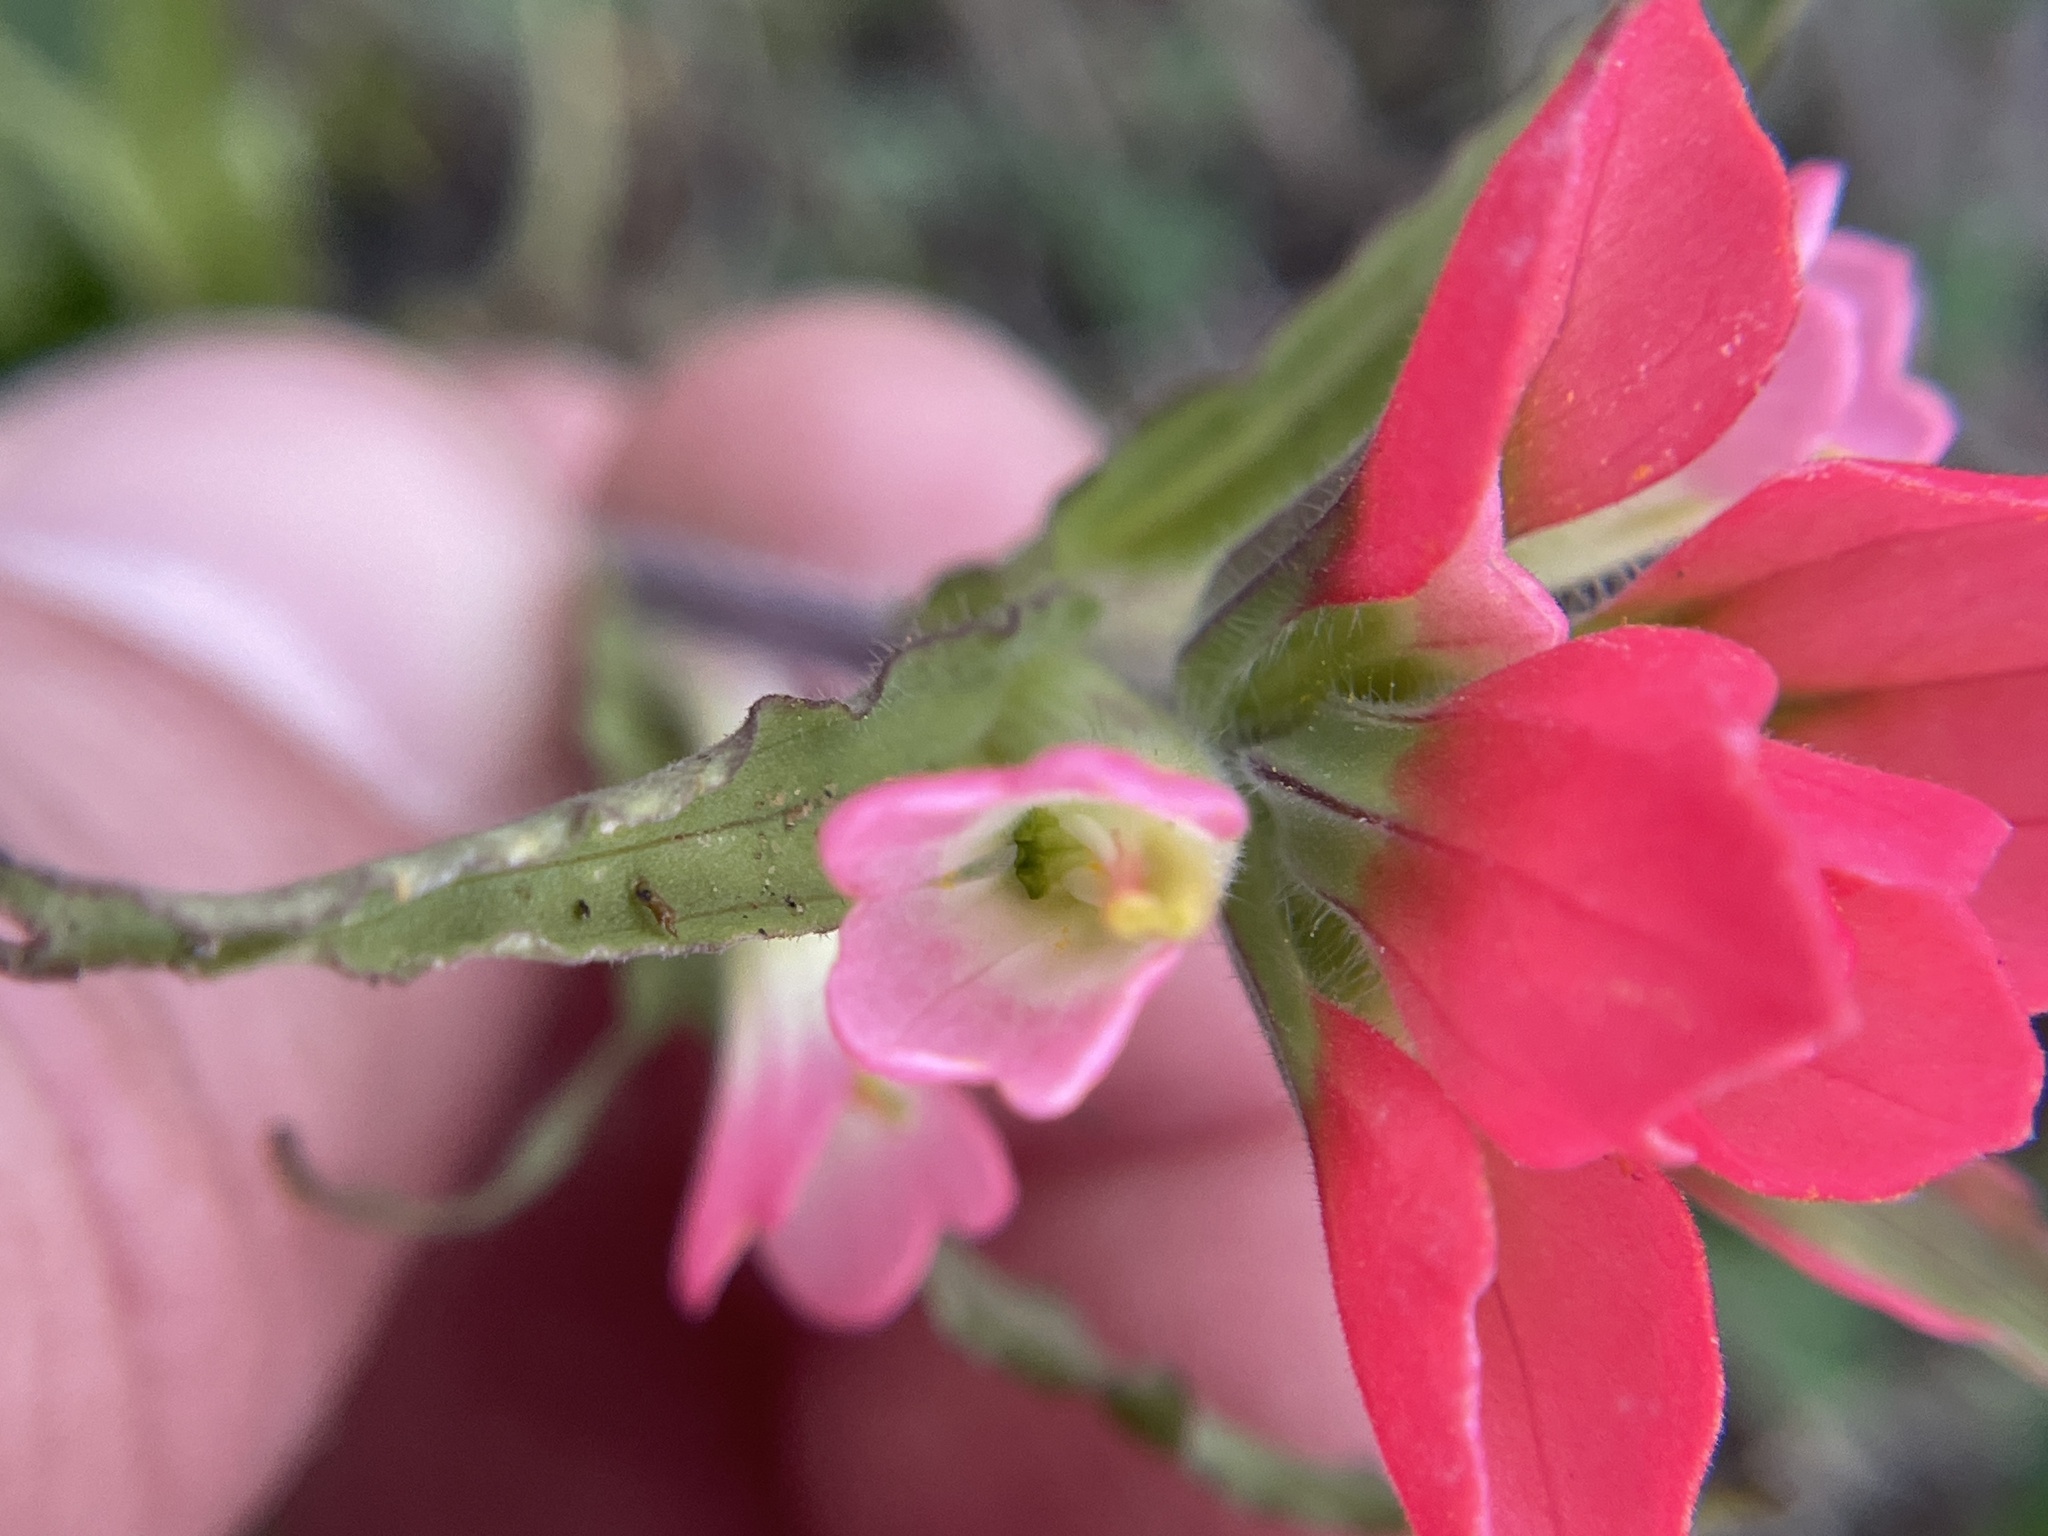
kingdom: Plantae
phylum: Tracheophyta
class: Magnoliopsida
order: Lamiales
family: Orobanchaceae
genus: Castilleja
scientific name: Castilleja indivisa
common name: Texas paintbrush
